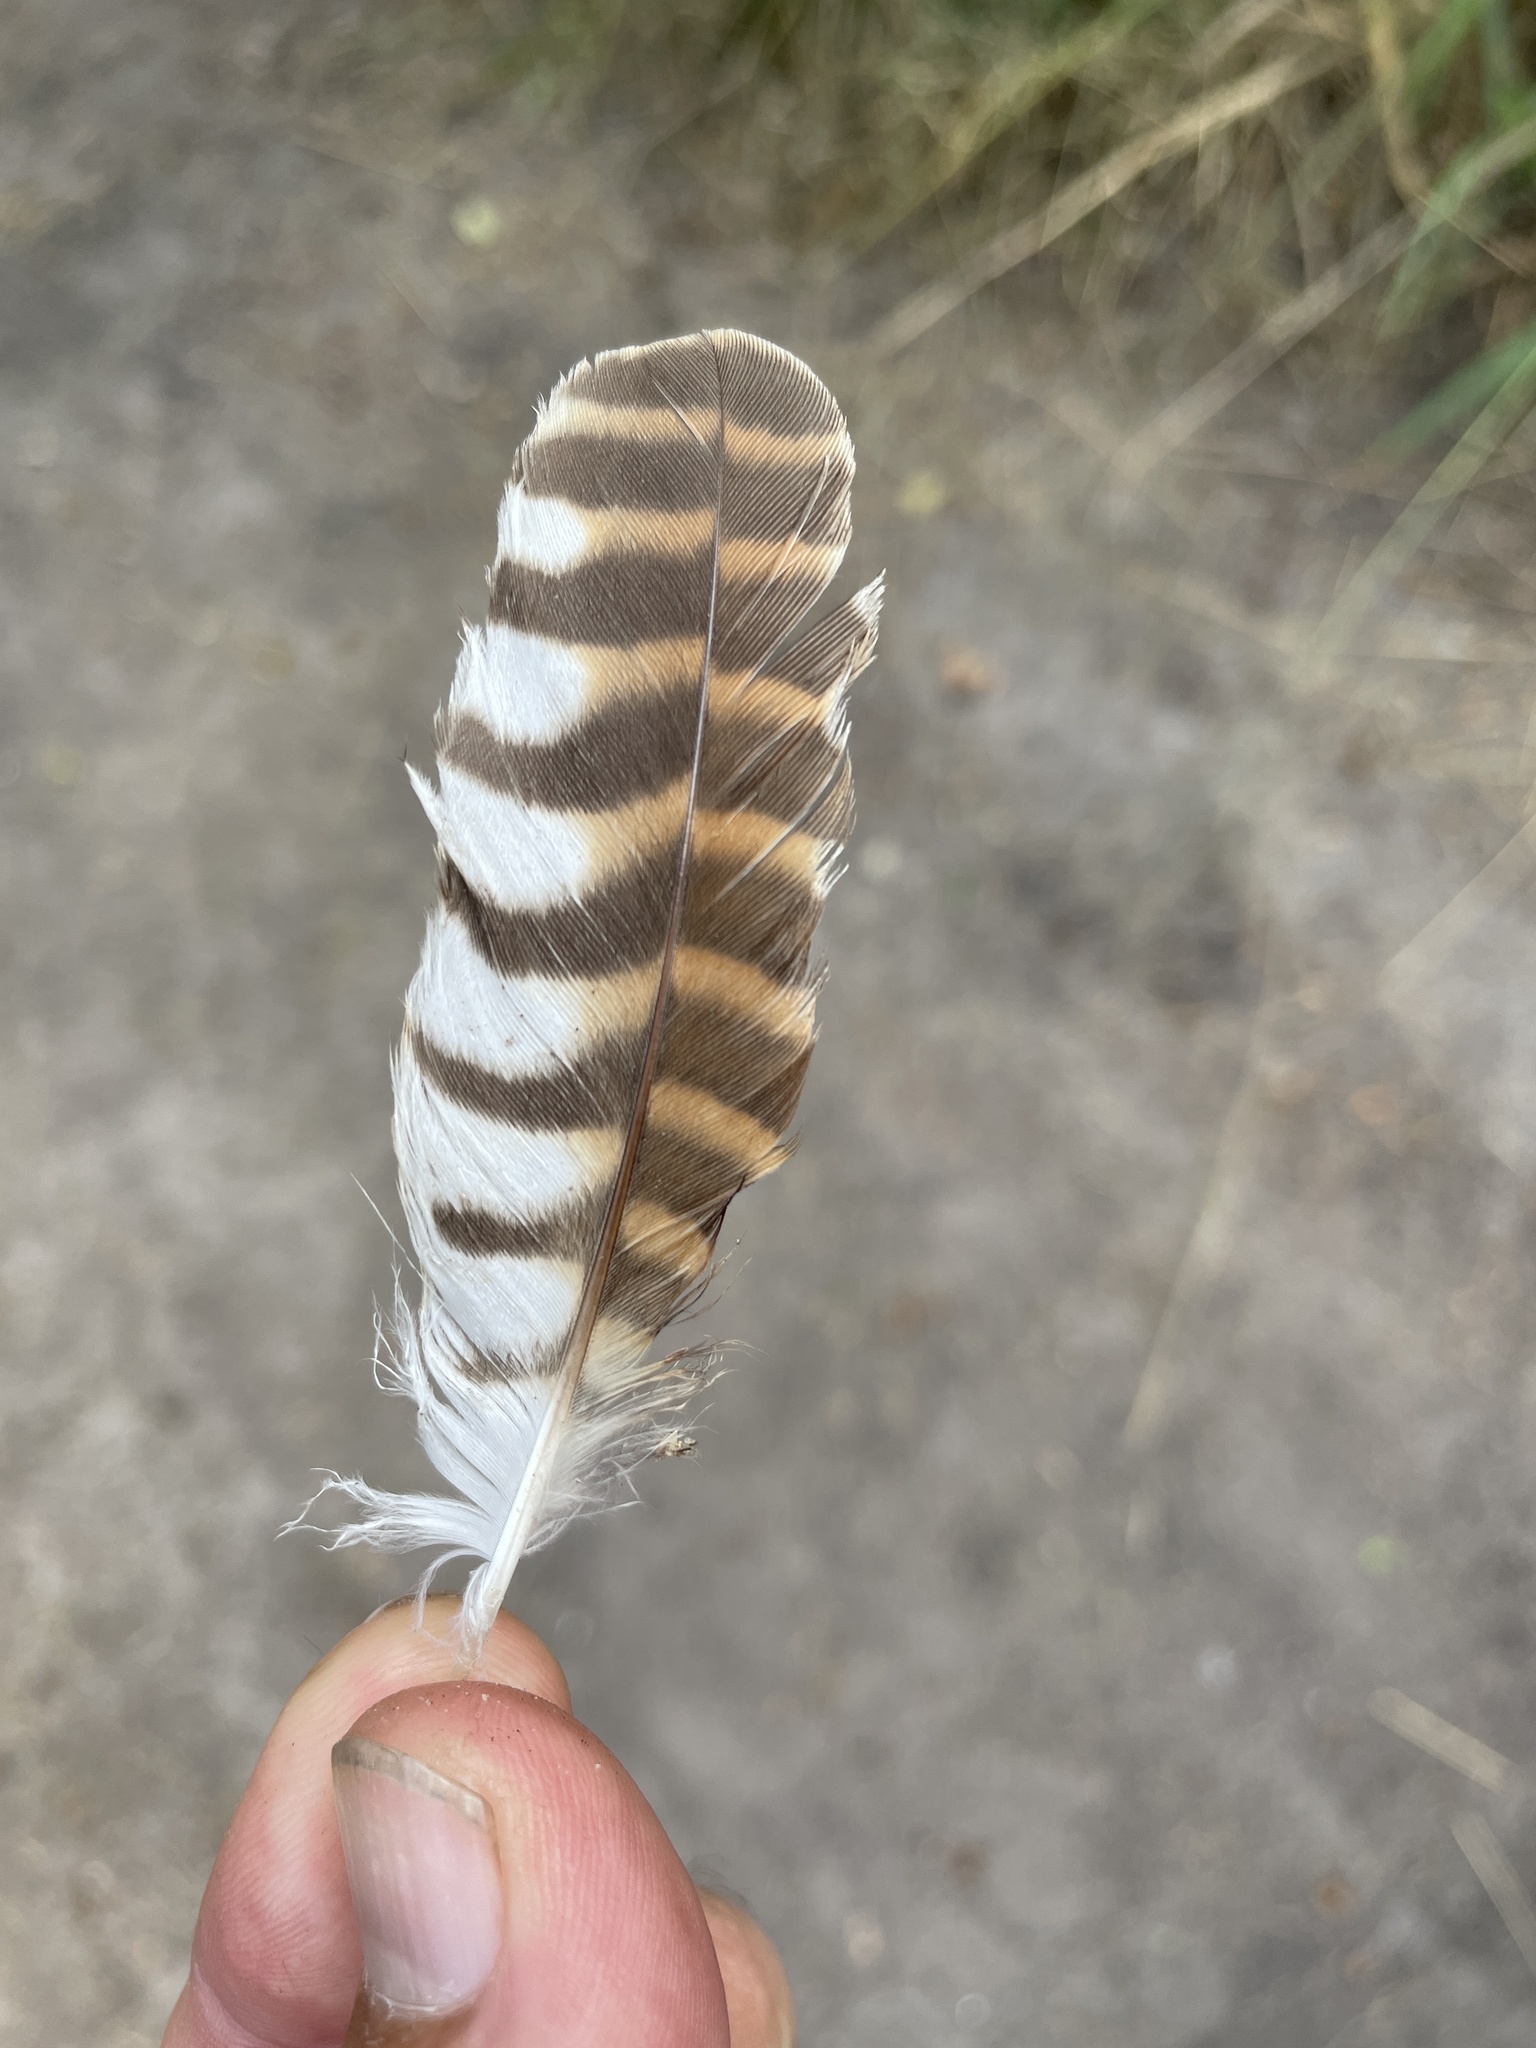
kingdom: Animalia
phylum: Chordata
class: Aves
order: Strigiformes
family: Strigidae
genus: Glaucidium
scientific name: Glaucidium capense
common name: African barred owlet
